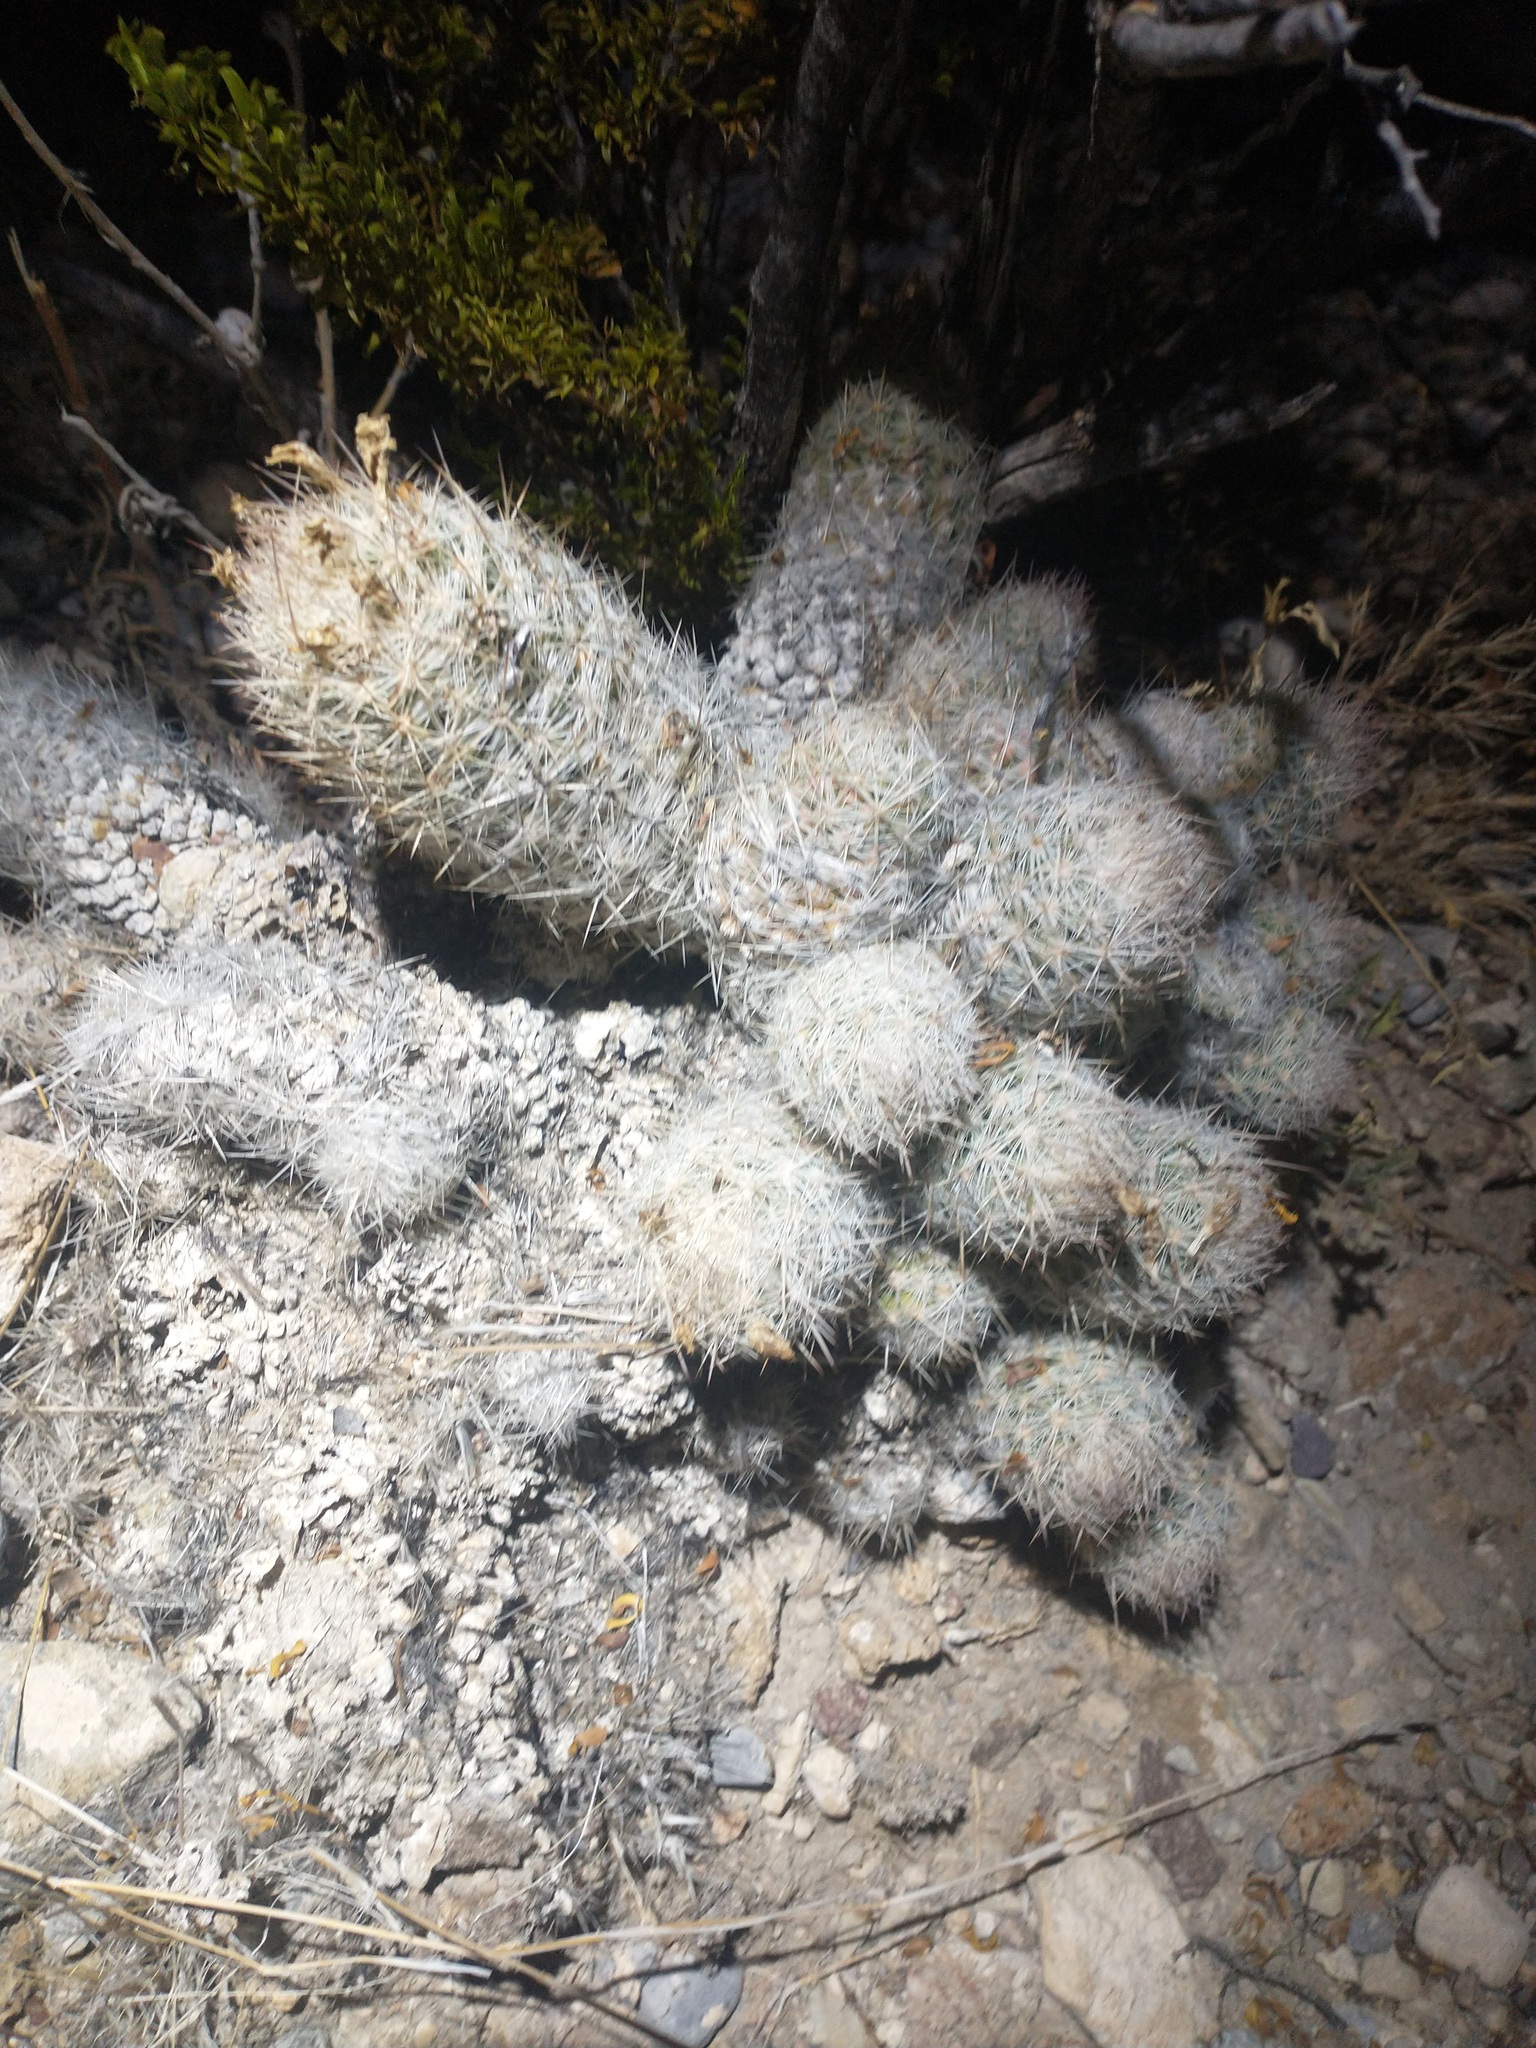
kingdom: Plantae
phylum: Tracheophyta
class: Magnoliopsida
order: Caryophyllales
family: Cactaceae
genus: Pelecyphora
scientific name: Pelecyphora tuberculosa
